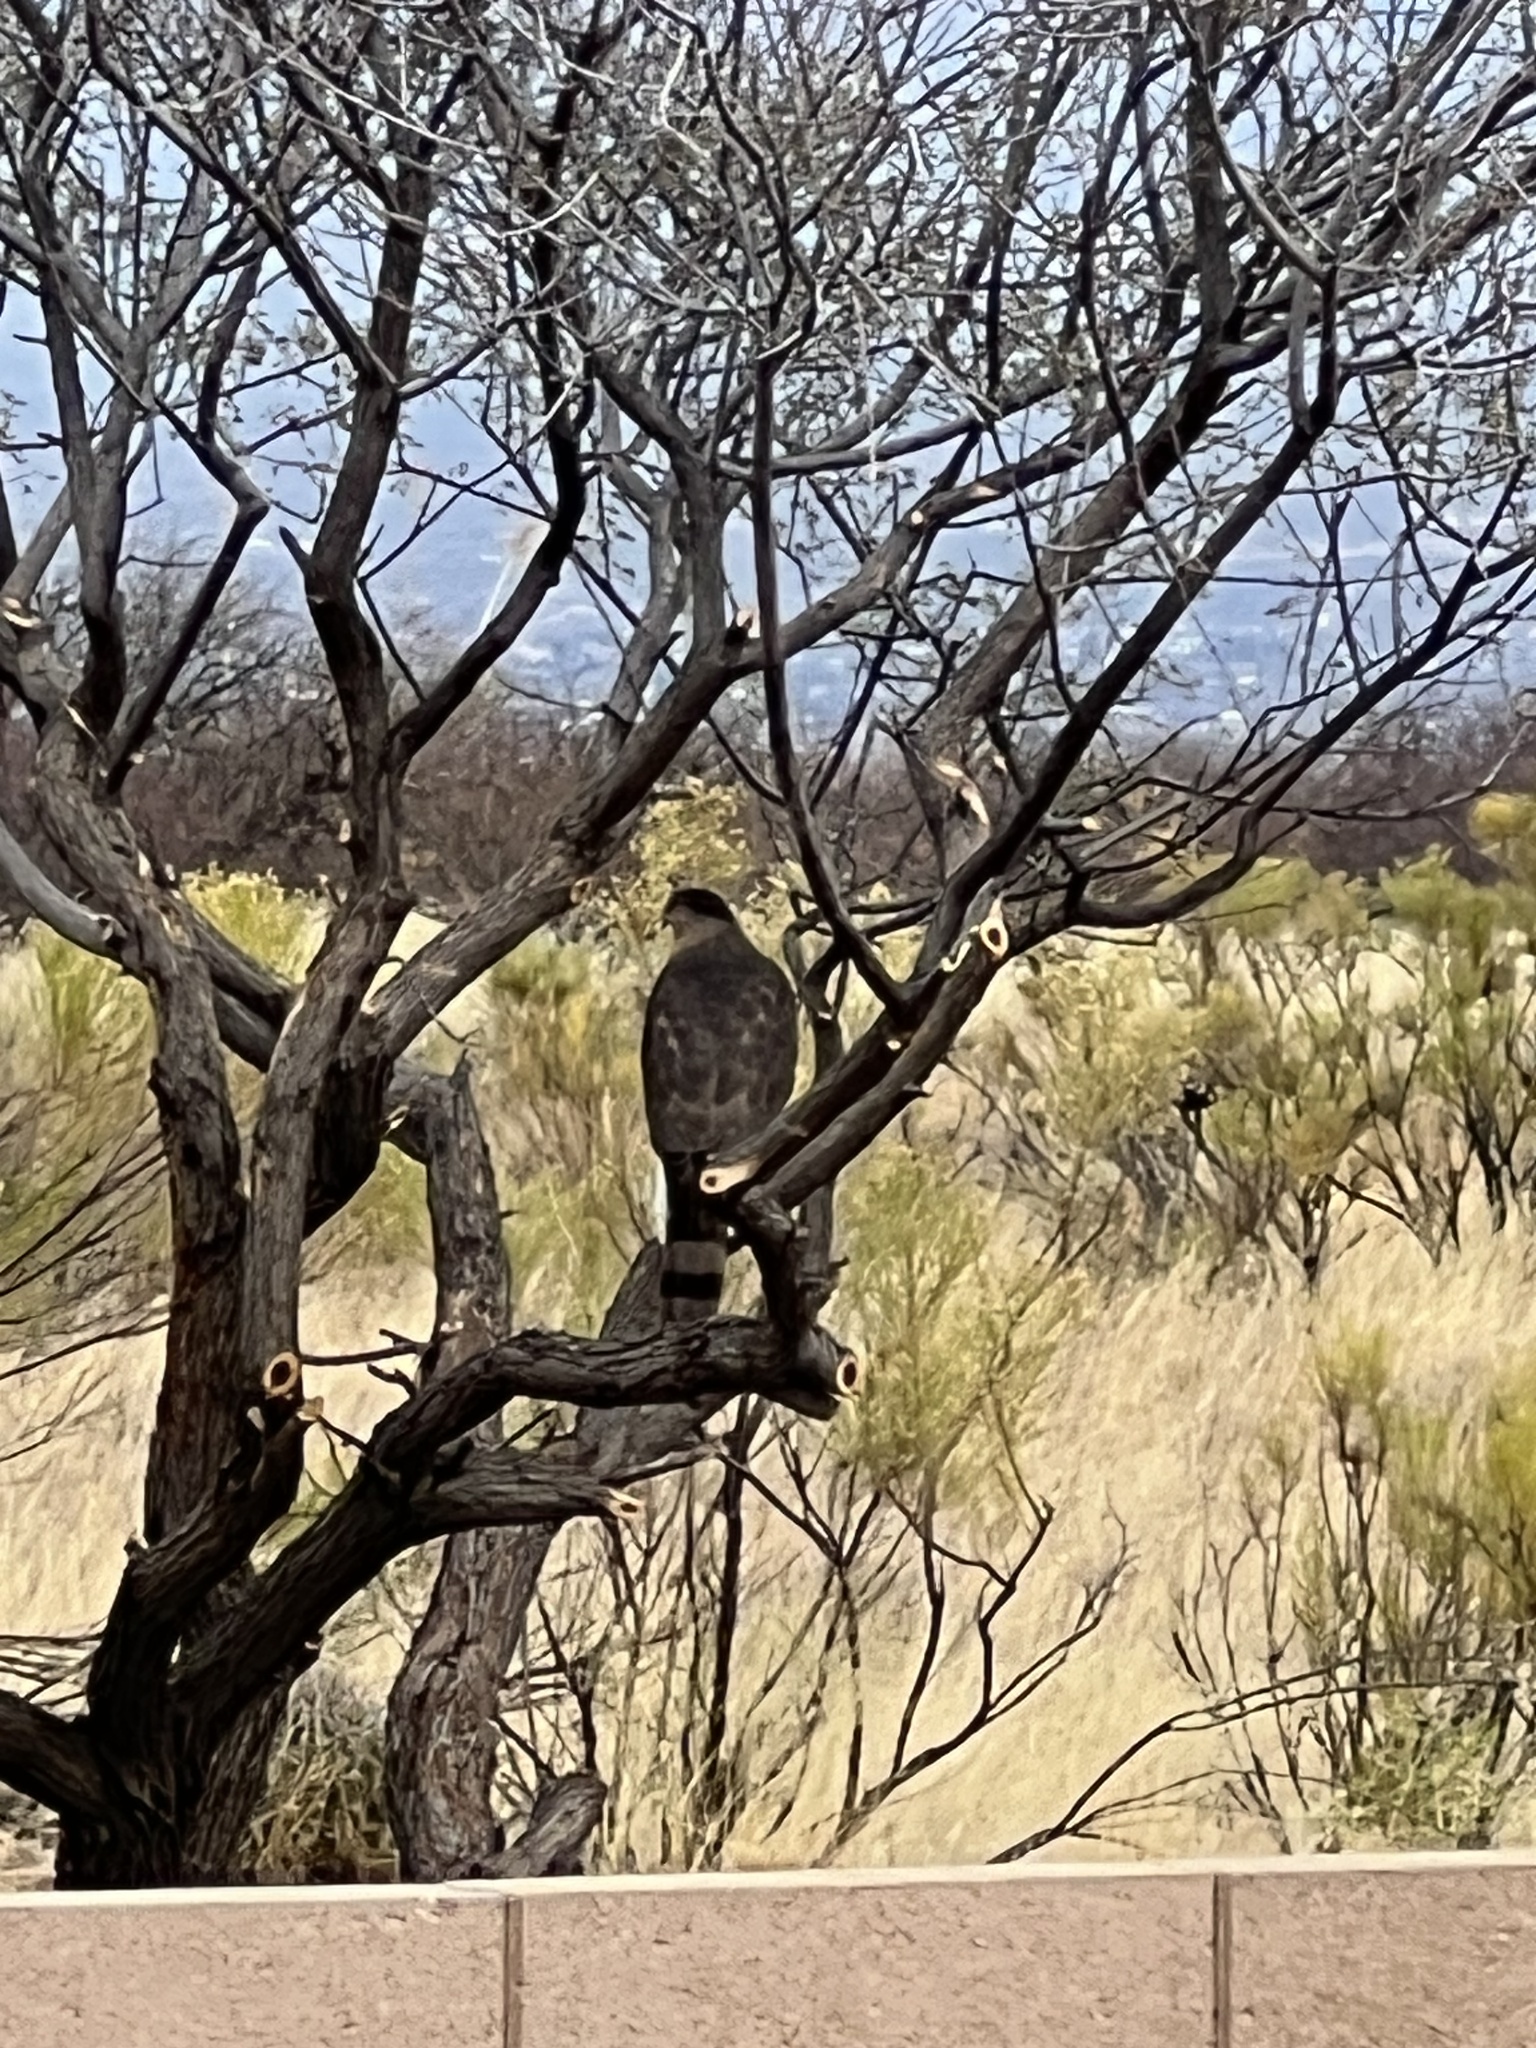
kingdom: Animalia
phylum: Chordata
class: Aves
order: Accipitriformes
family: Accipitridae
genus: Accipiter
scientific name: Accipiter cooperii
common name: Cooper's hawk
